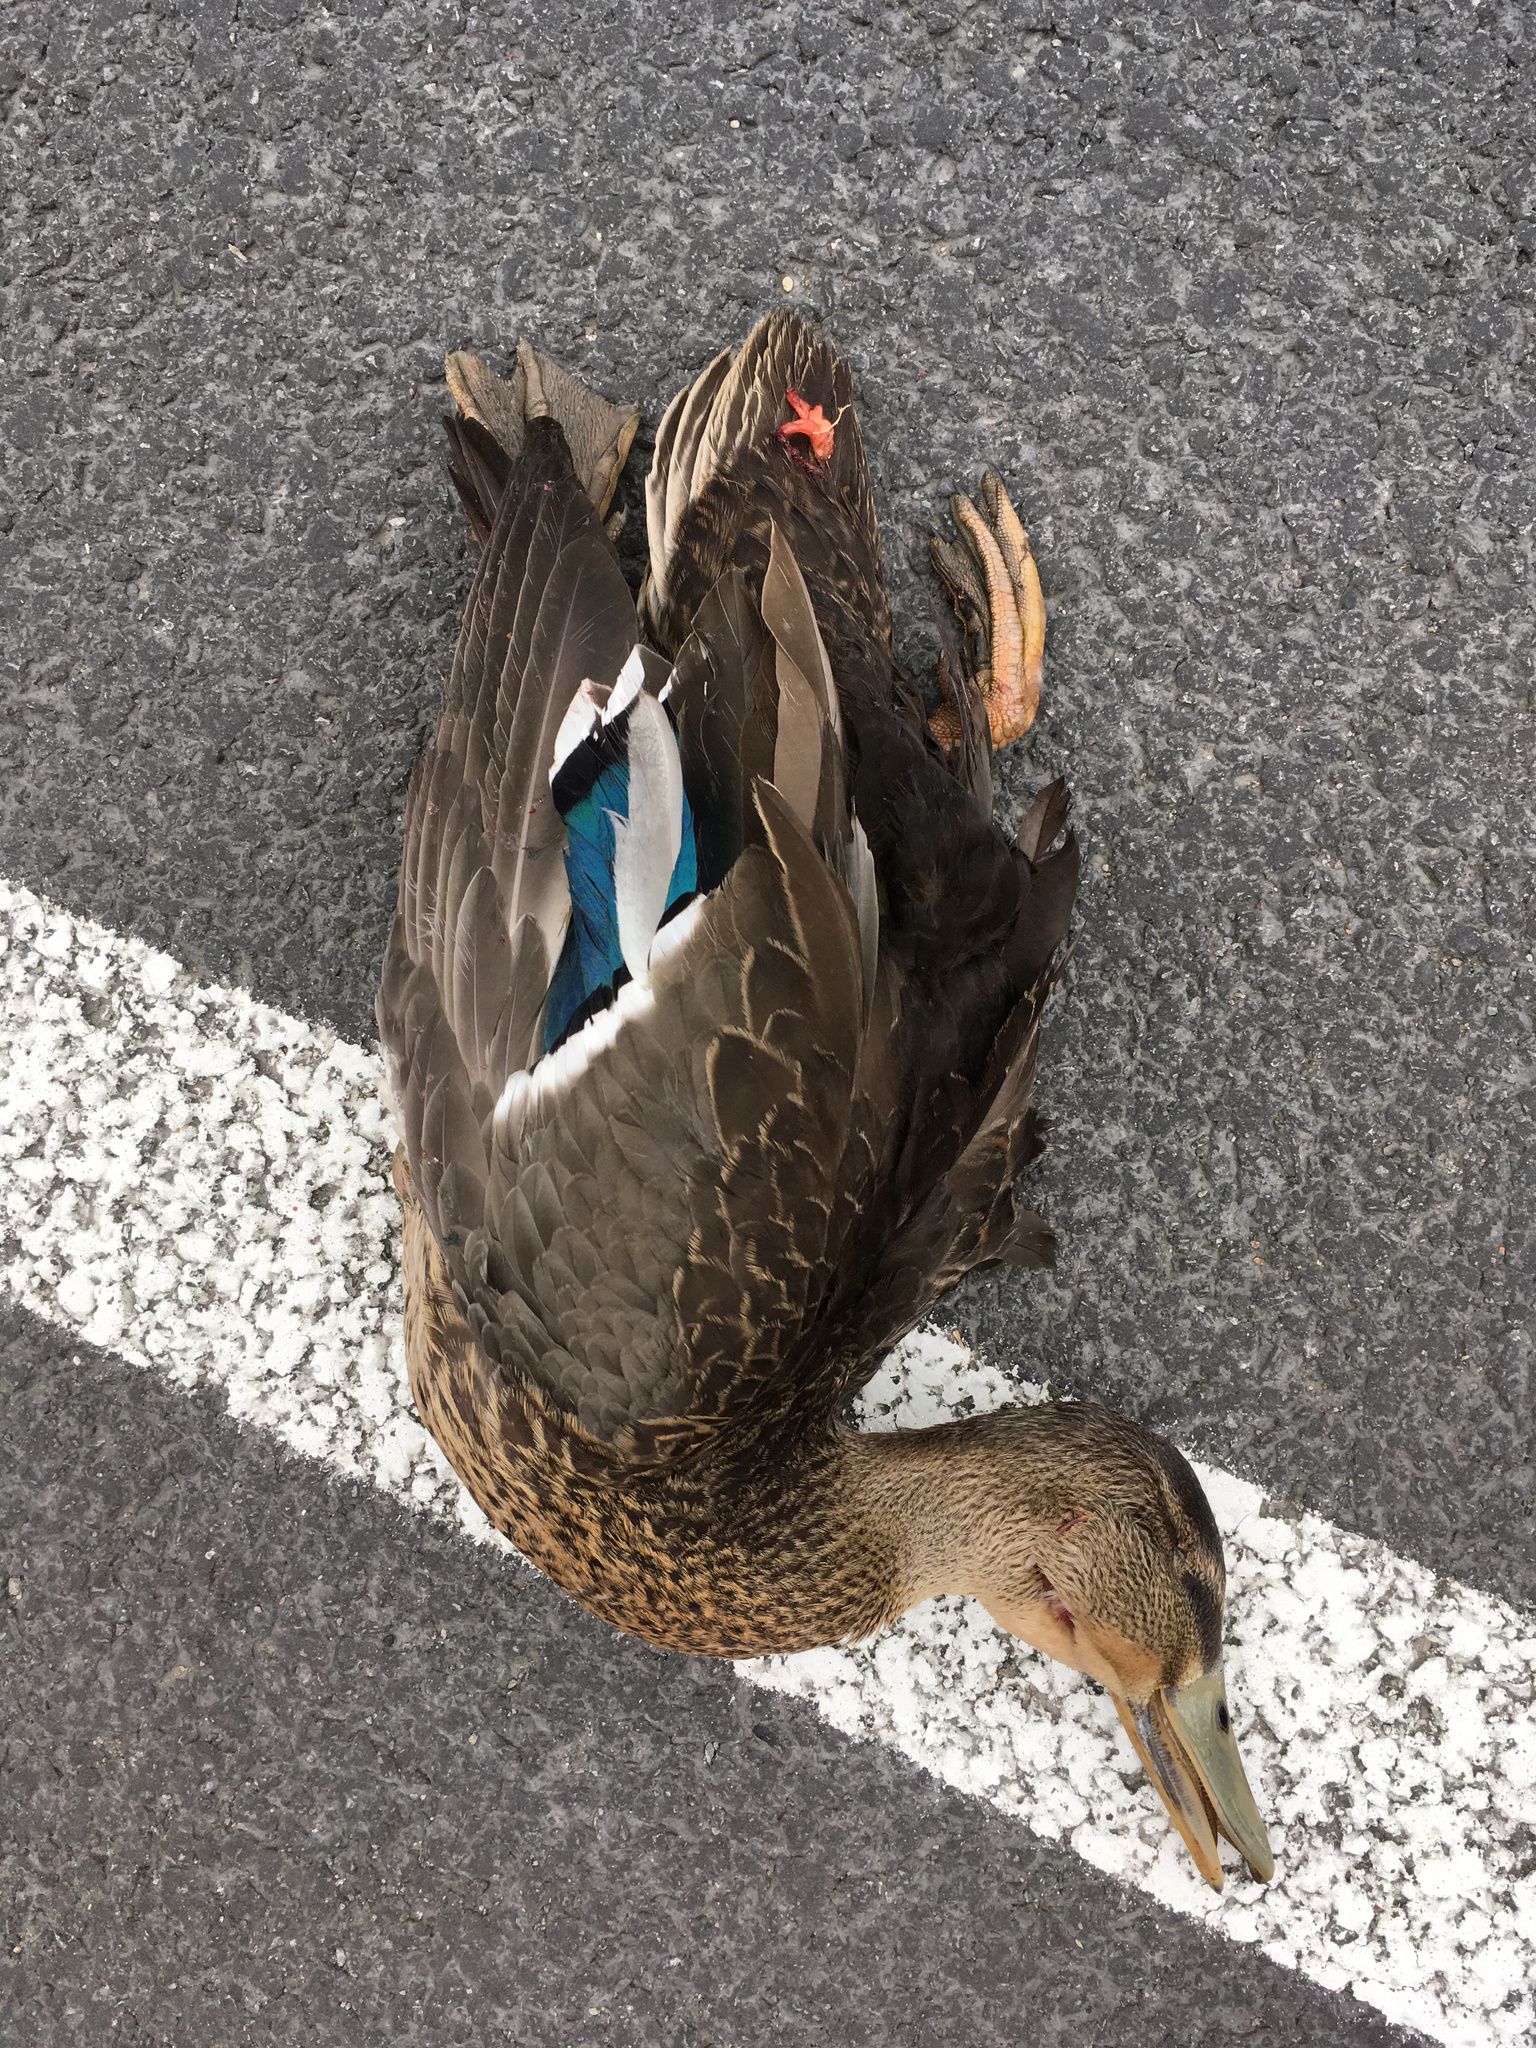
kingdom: Animalia
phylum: Chordata
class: Aves
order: Anseriformes
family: Anatidae
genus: Anas
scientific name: Anas
